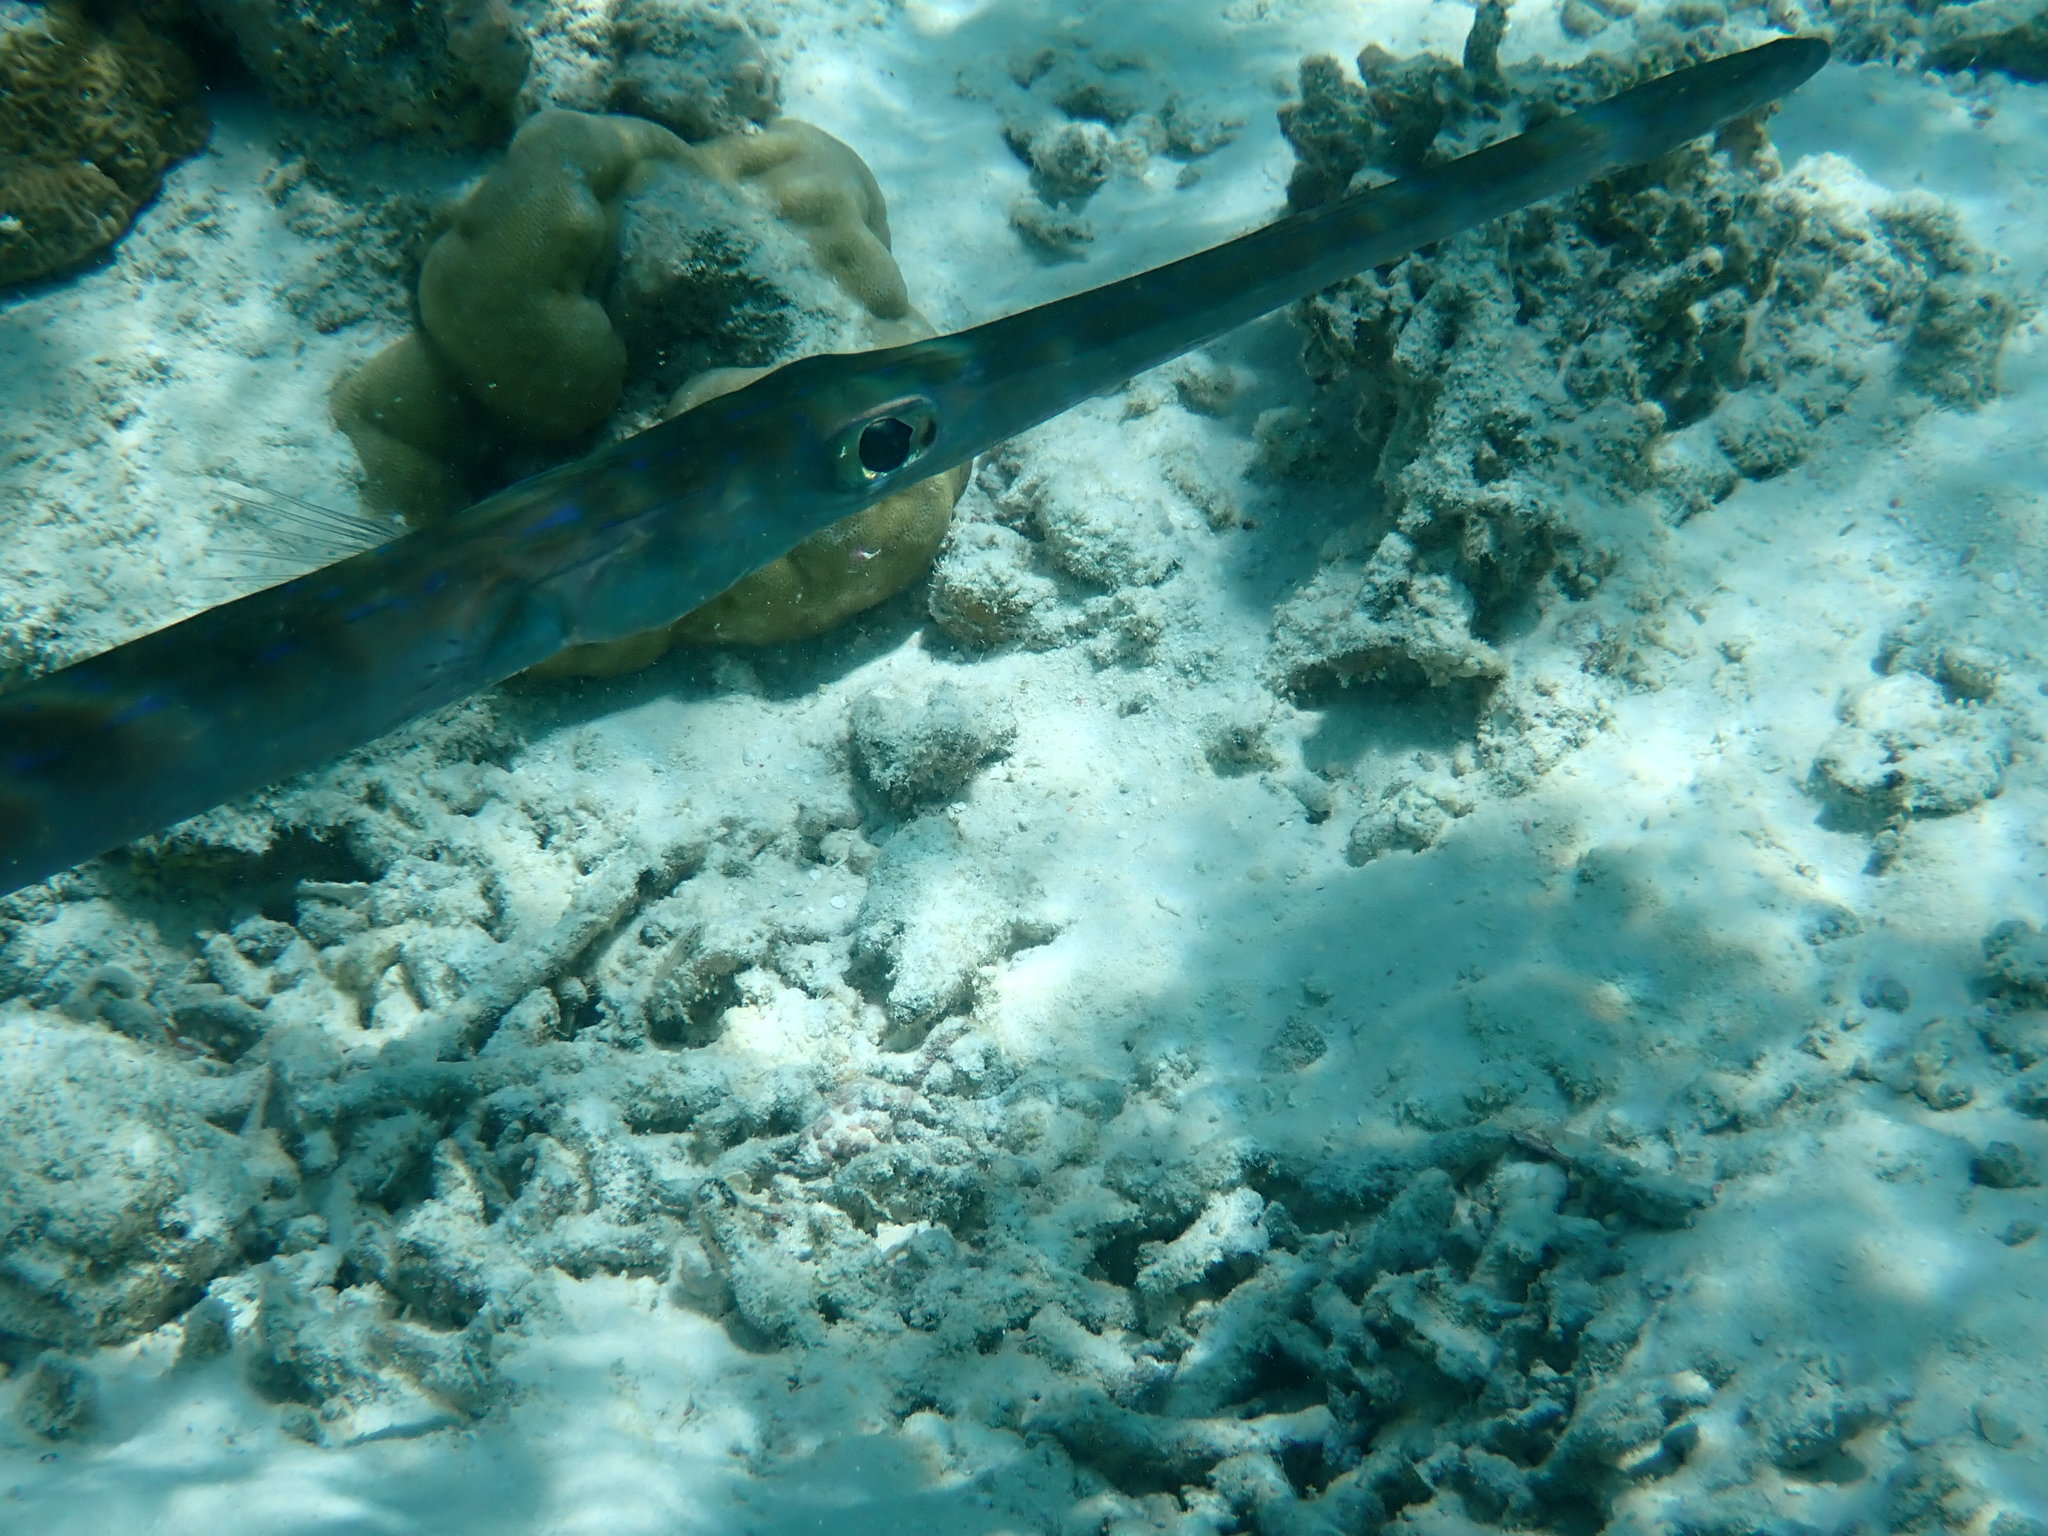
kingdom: Animalia
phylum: Chordata
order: Syngnathiformes
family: Fistulariidae
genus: Fistularia
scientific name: Fistularia commersonii
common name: Bluespotted cornetfish
